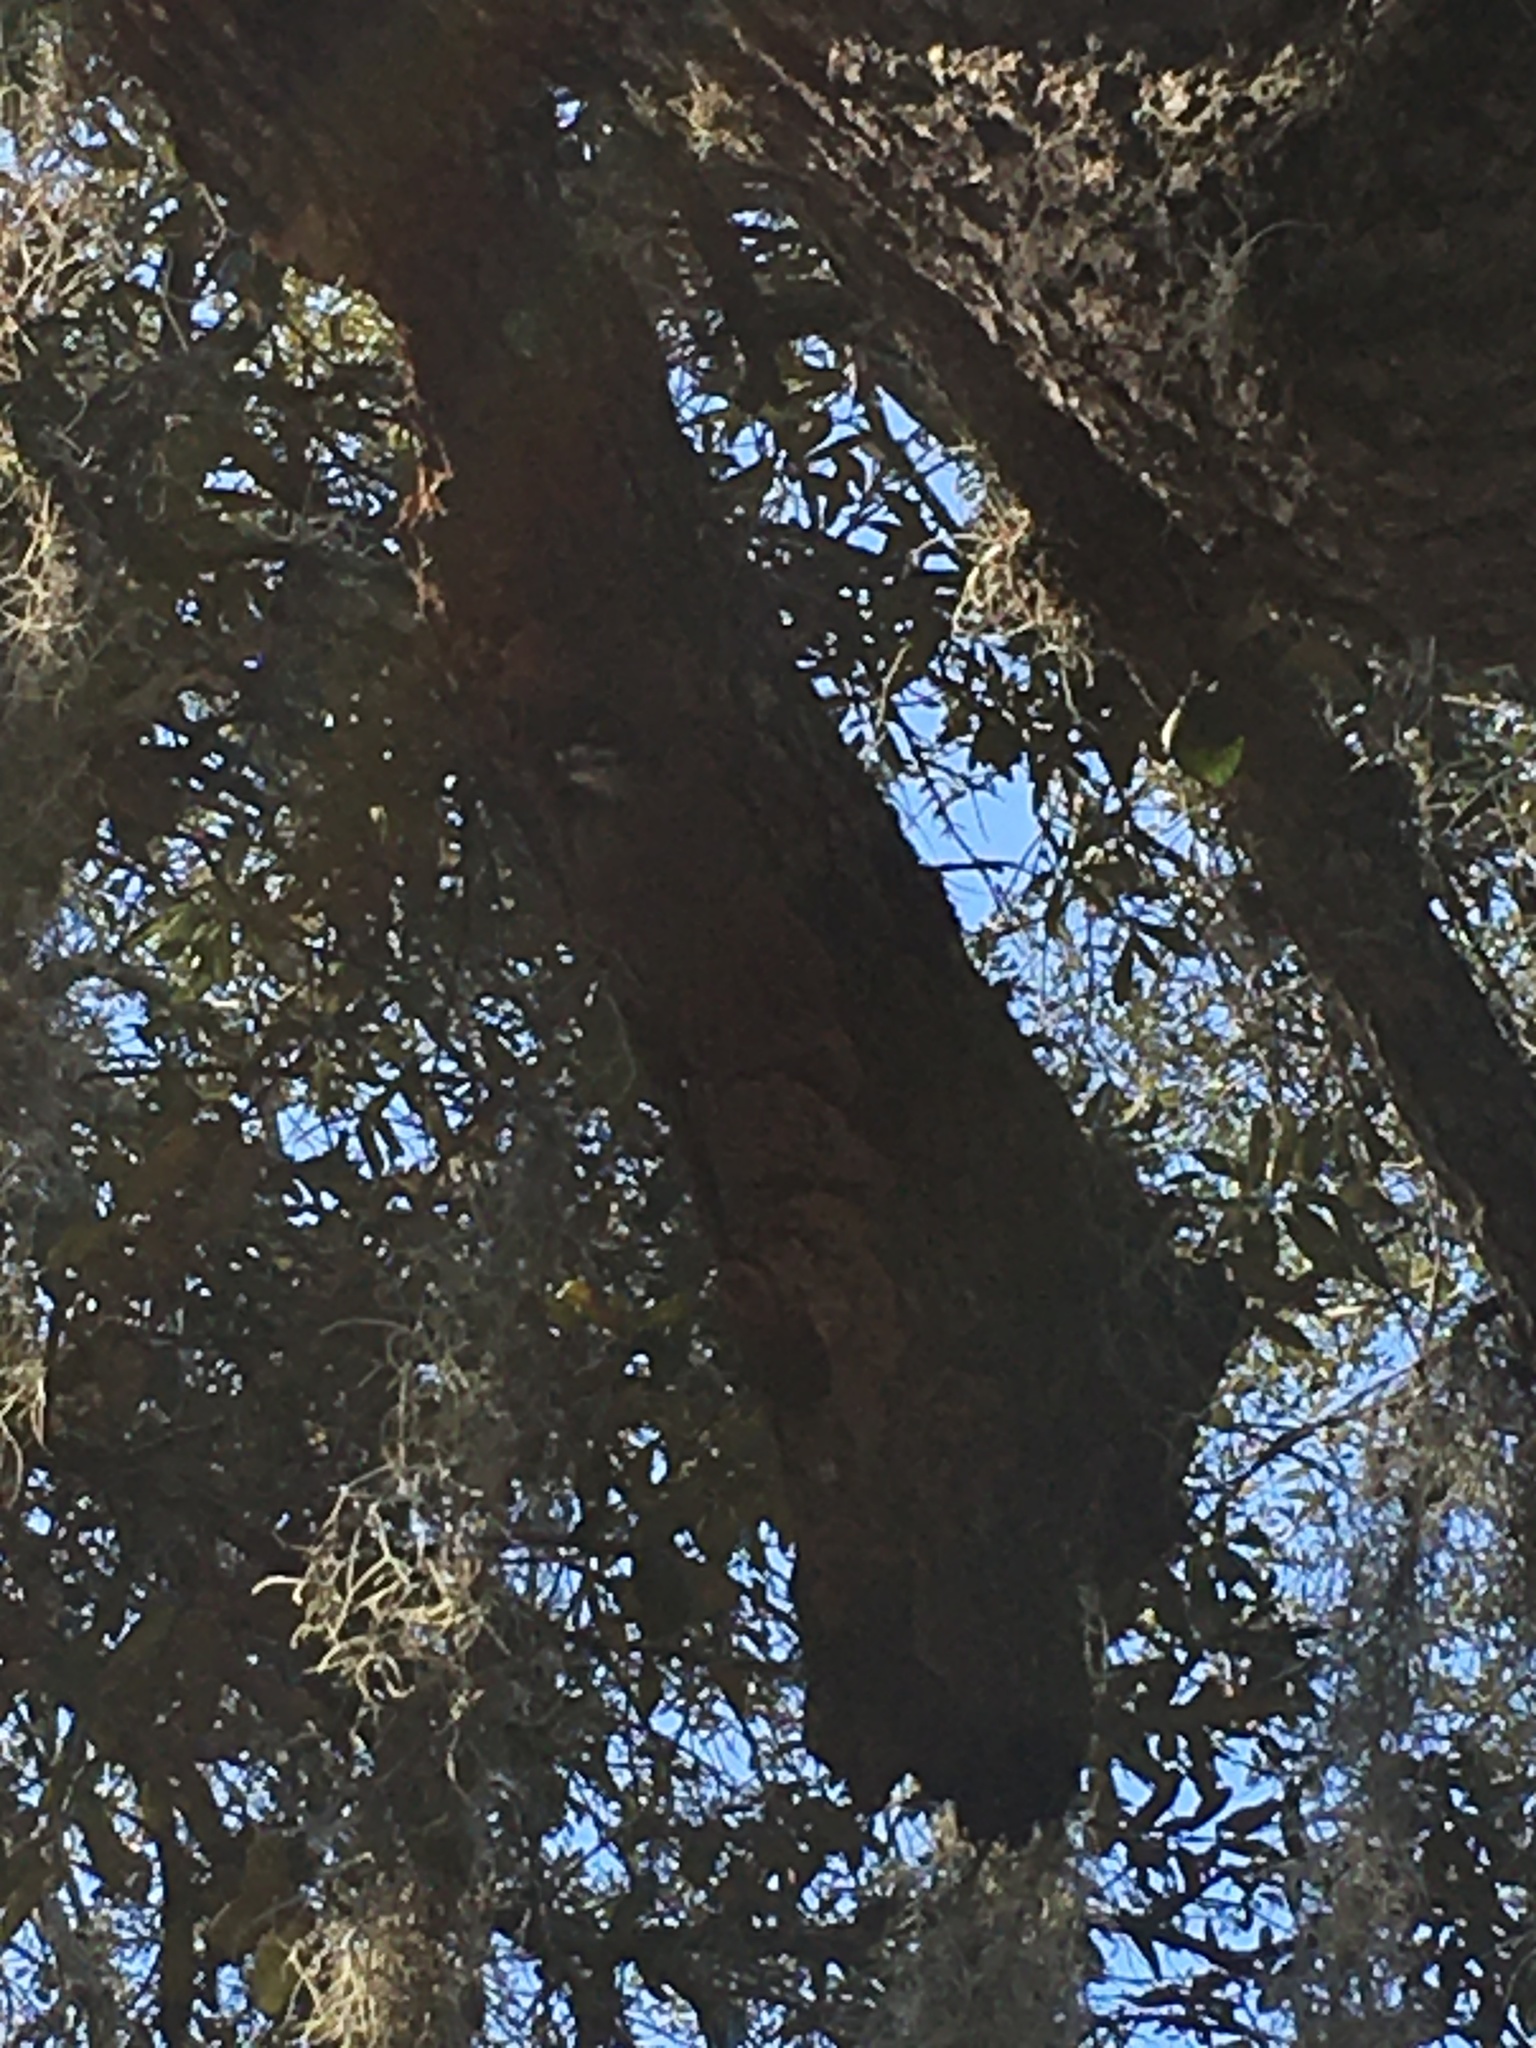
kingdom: Animalia
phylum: Chordata
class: Aves
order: Piciformes
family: Picidae
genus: Dryobates
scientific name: Dryobates pubescens
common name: Downy woodpecker
